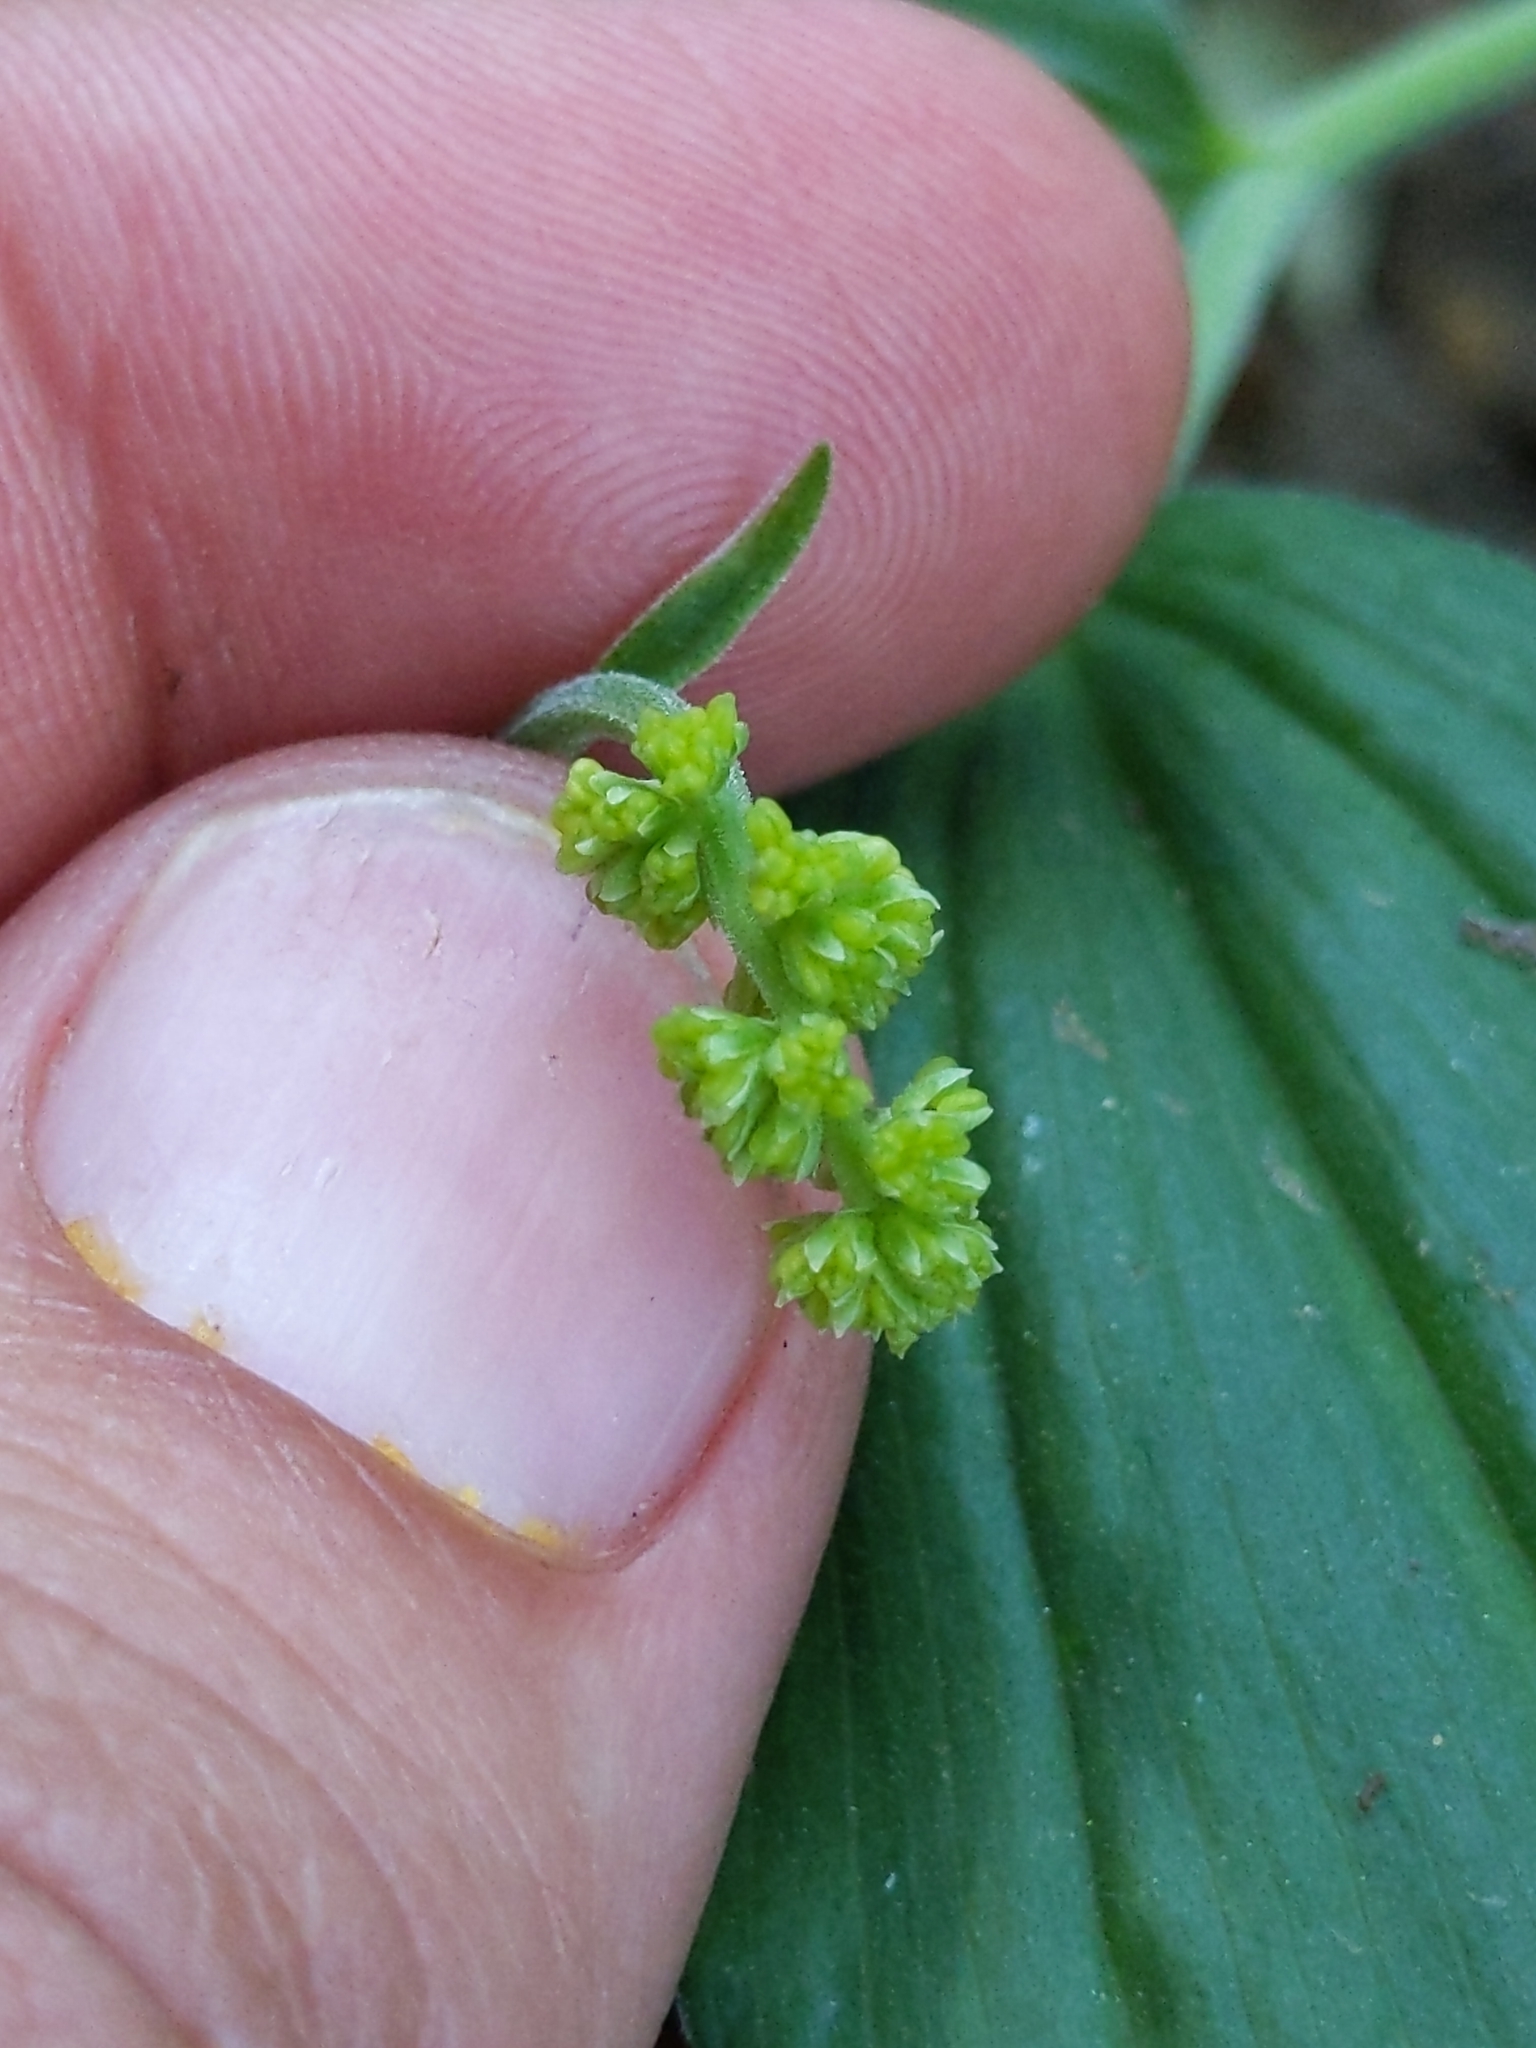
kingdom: Plantae
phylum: Tracheophyta
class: Liliopsida
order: Asparagales
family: Asparagaceae
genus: Maianthemum
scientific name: Maianthemum racemosum
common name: False spikenard
